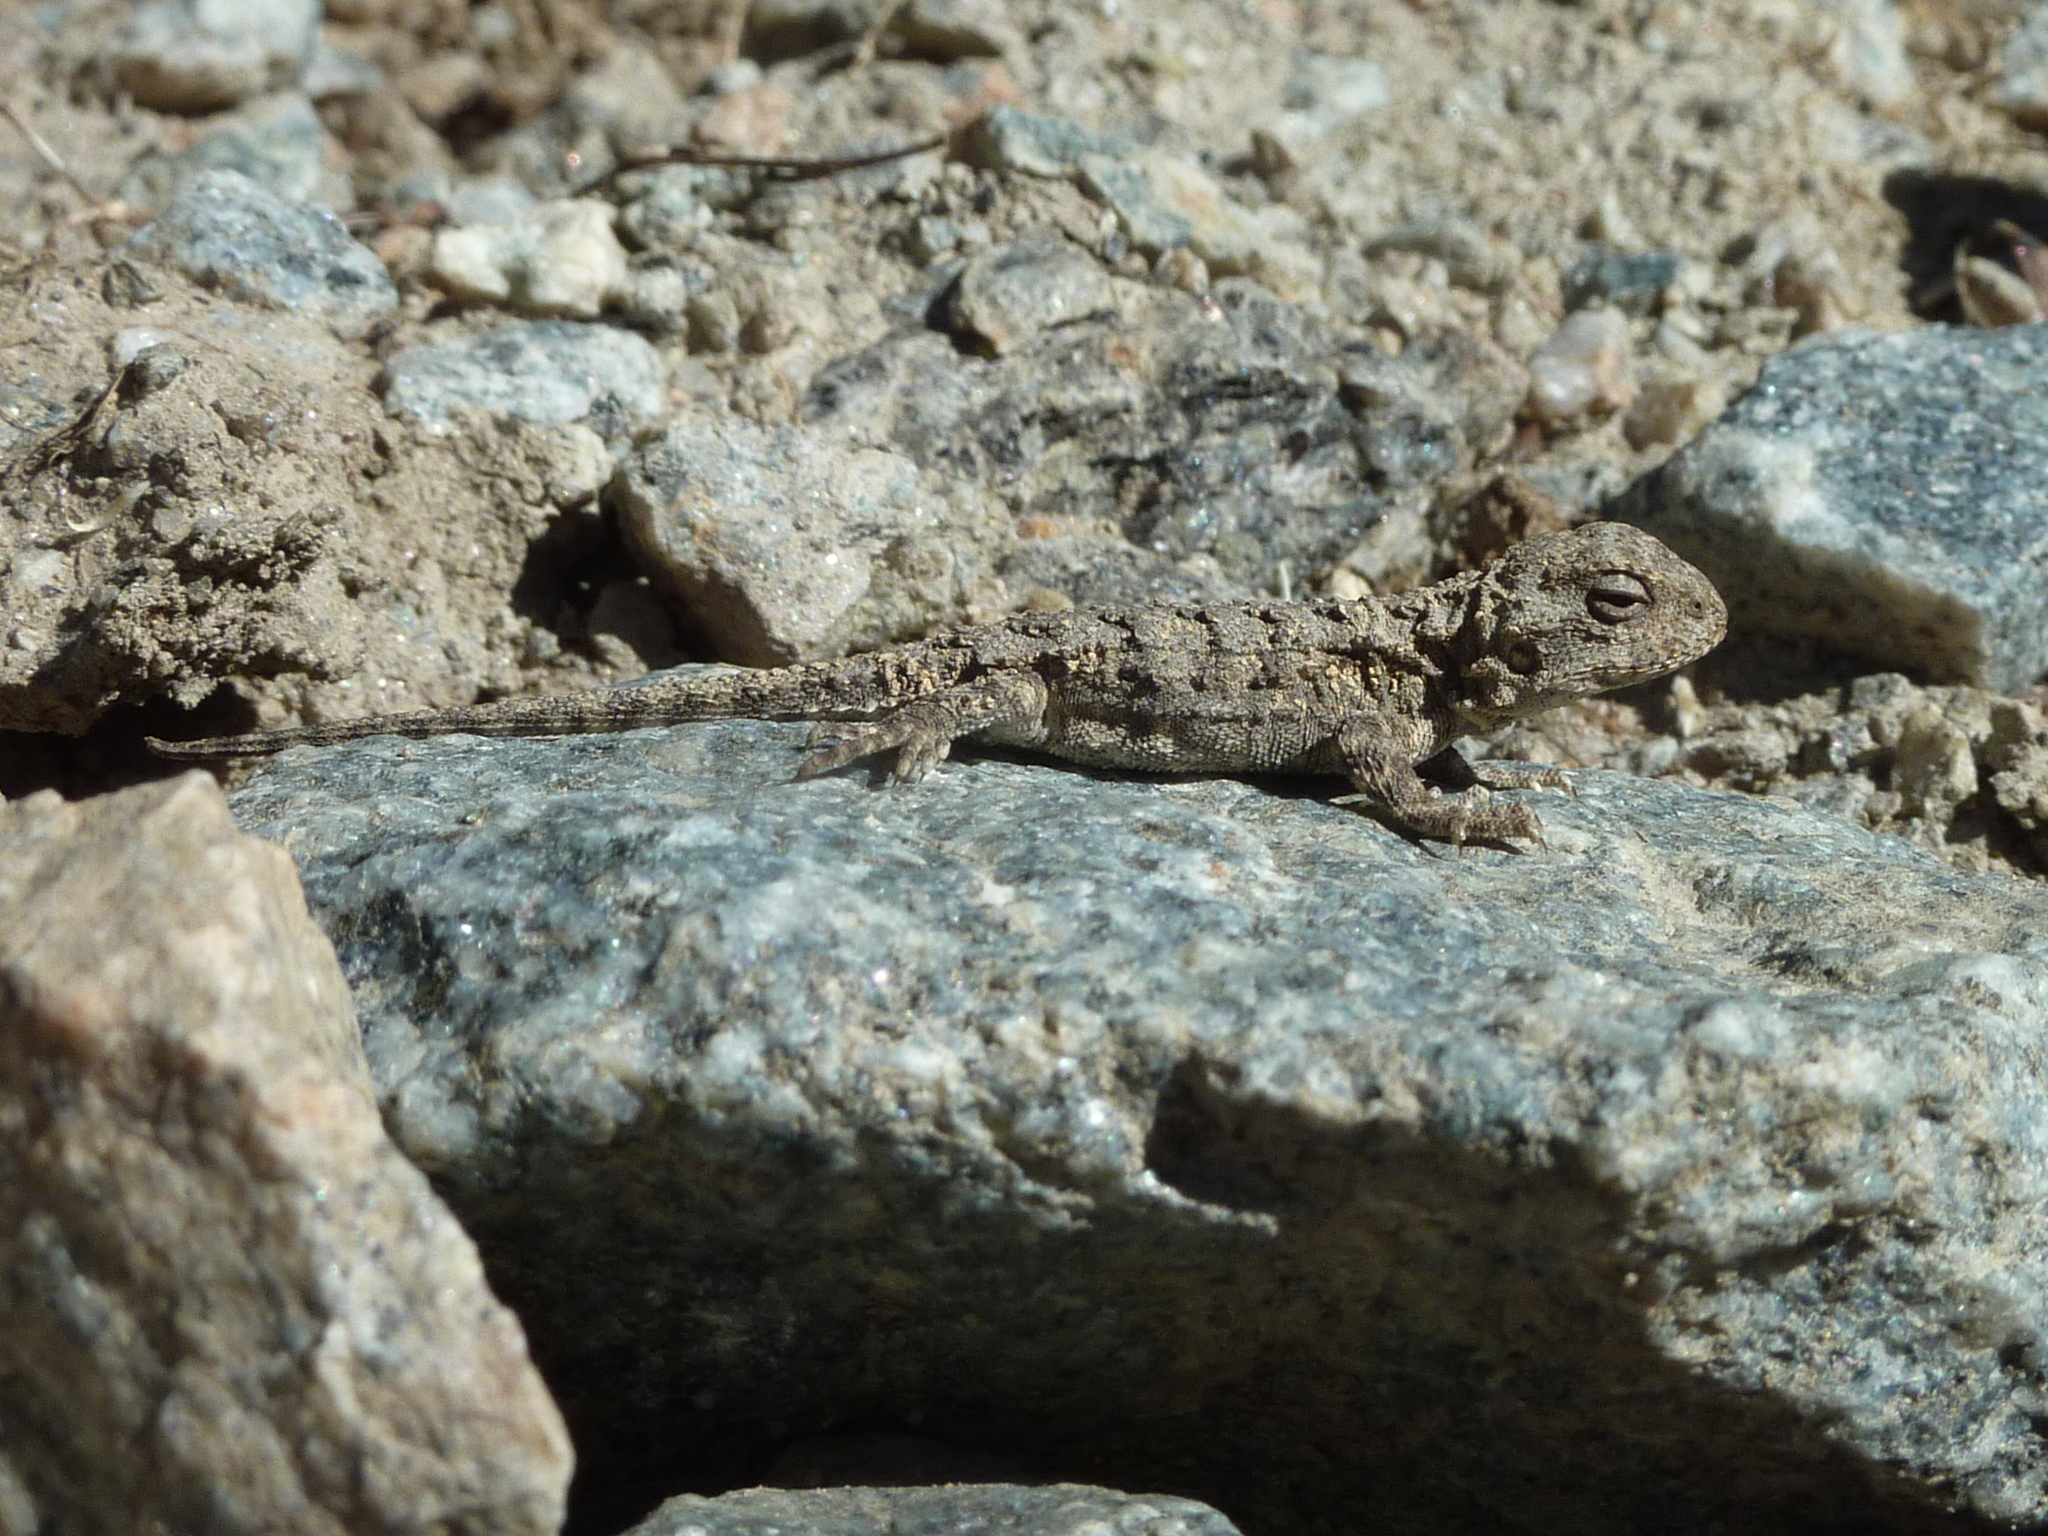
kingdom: Animalia
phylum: Chordata
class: Squamata
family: Agamidae
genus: Rankinia
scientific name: Rankinia diemensis
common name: Mountain dragon
